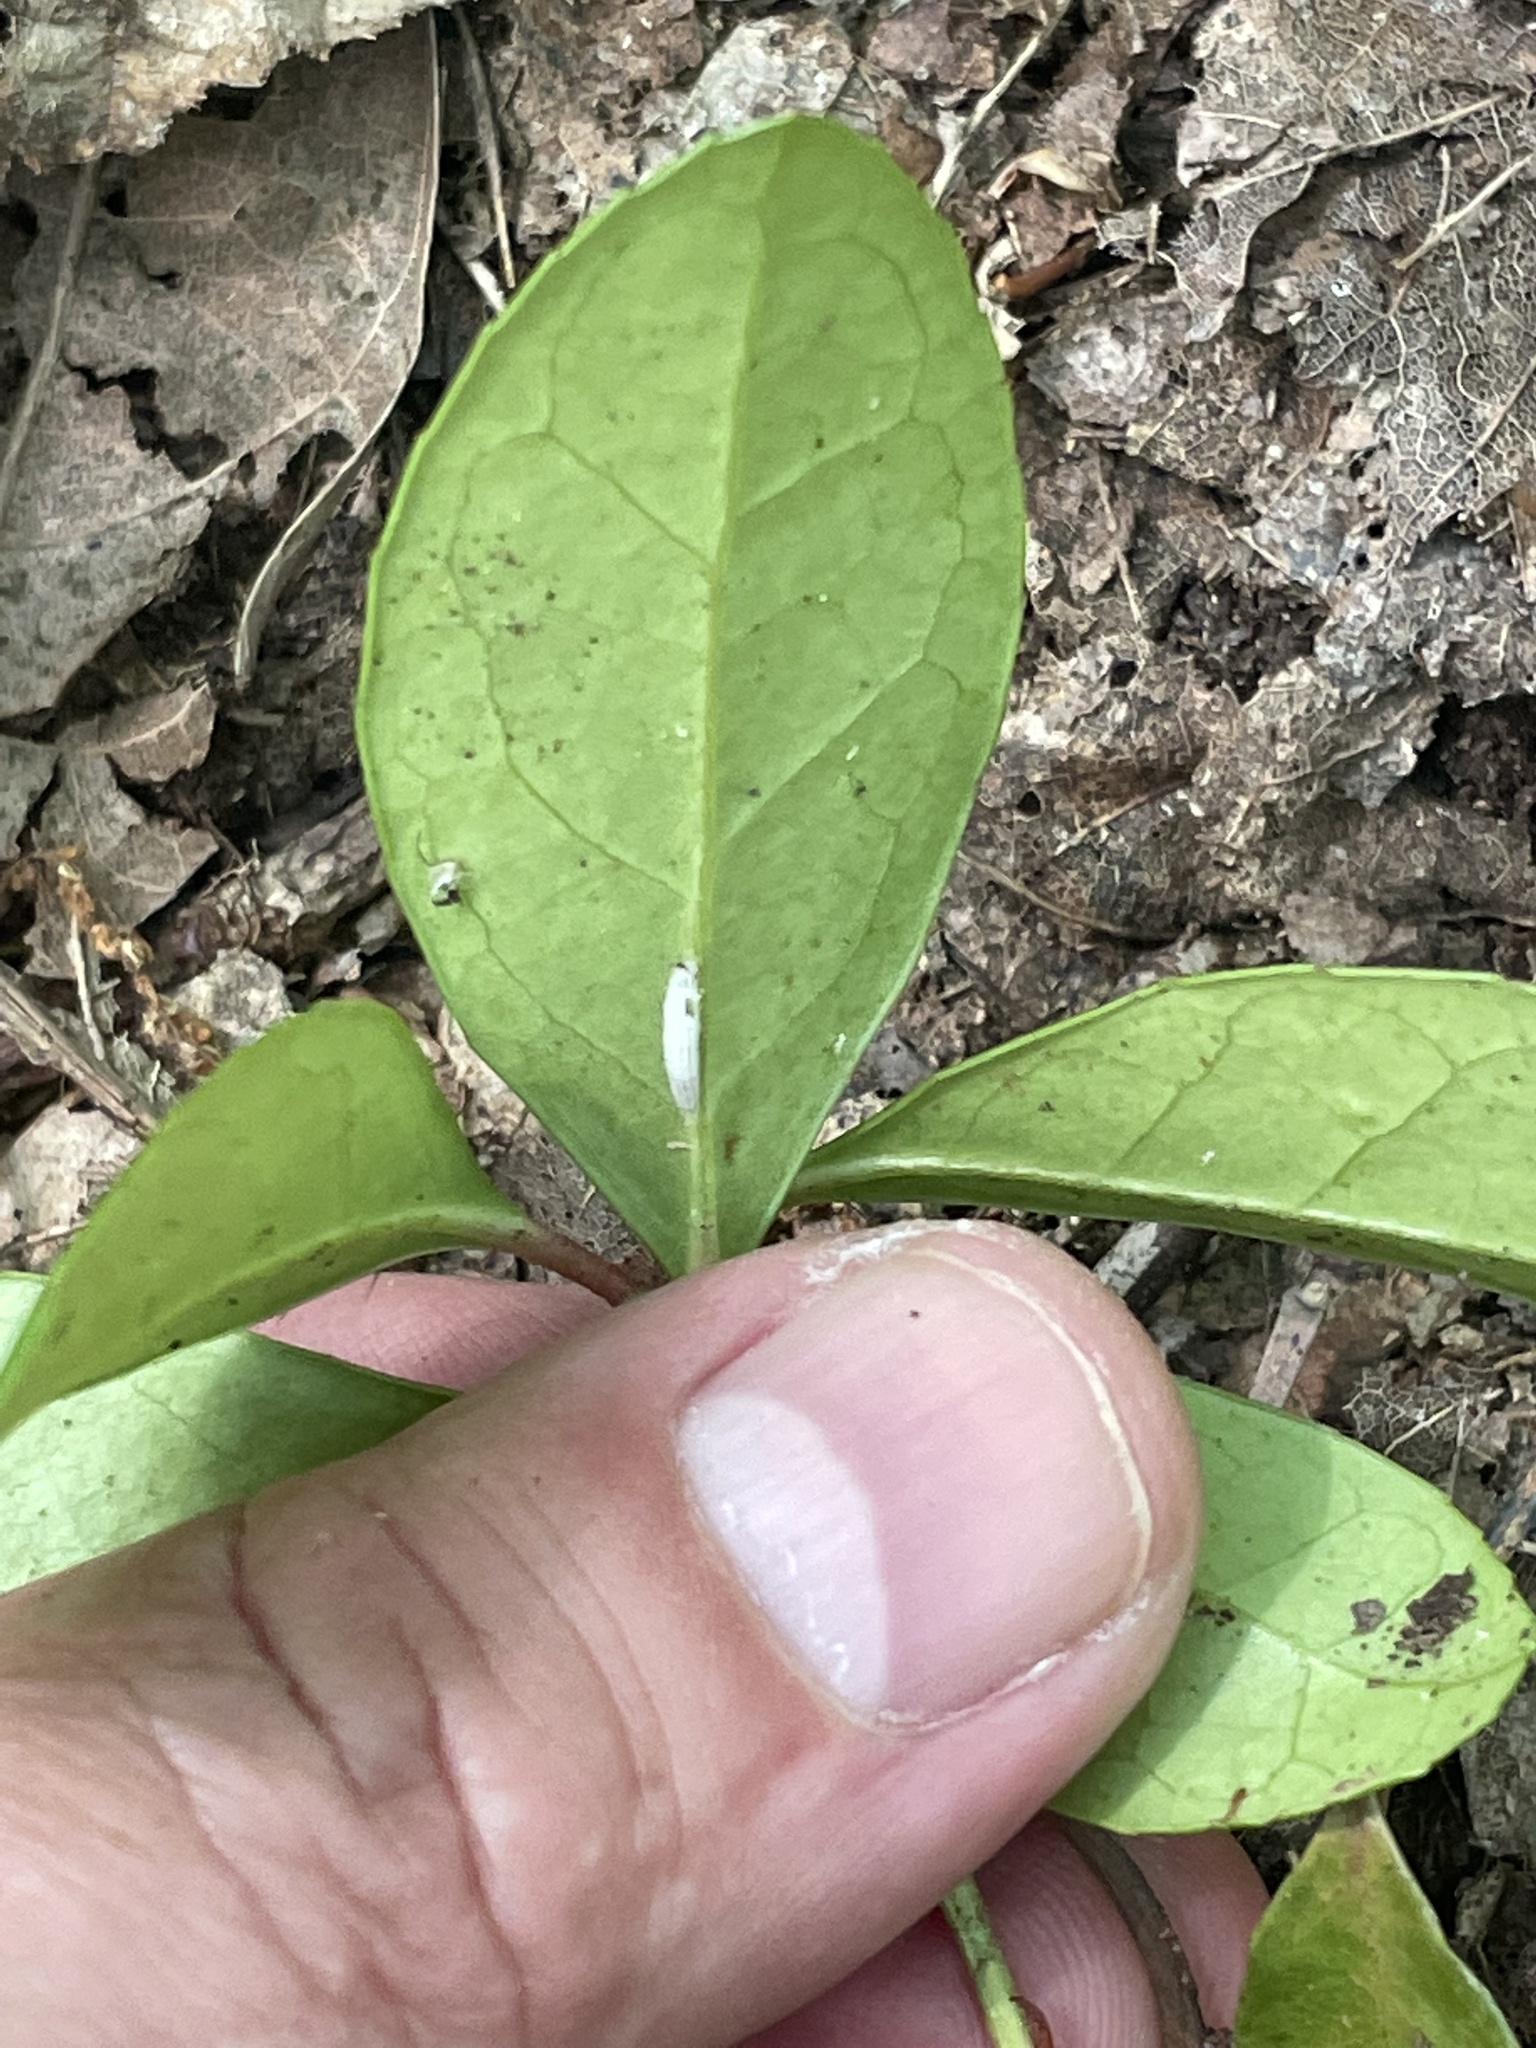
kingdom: Plantae
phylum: Tracheophyta
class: Magnoliopsida
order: Ericales
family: Ericaceae
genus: Gaultheria
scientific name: Gaultheria procumbens
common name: Checkerberry
